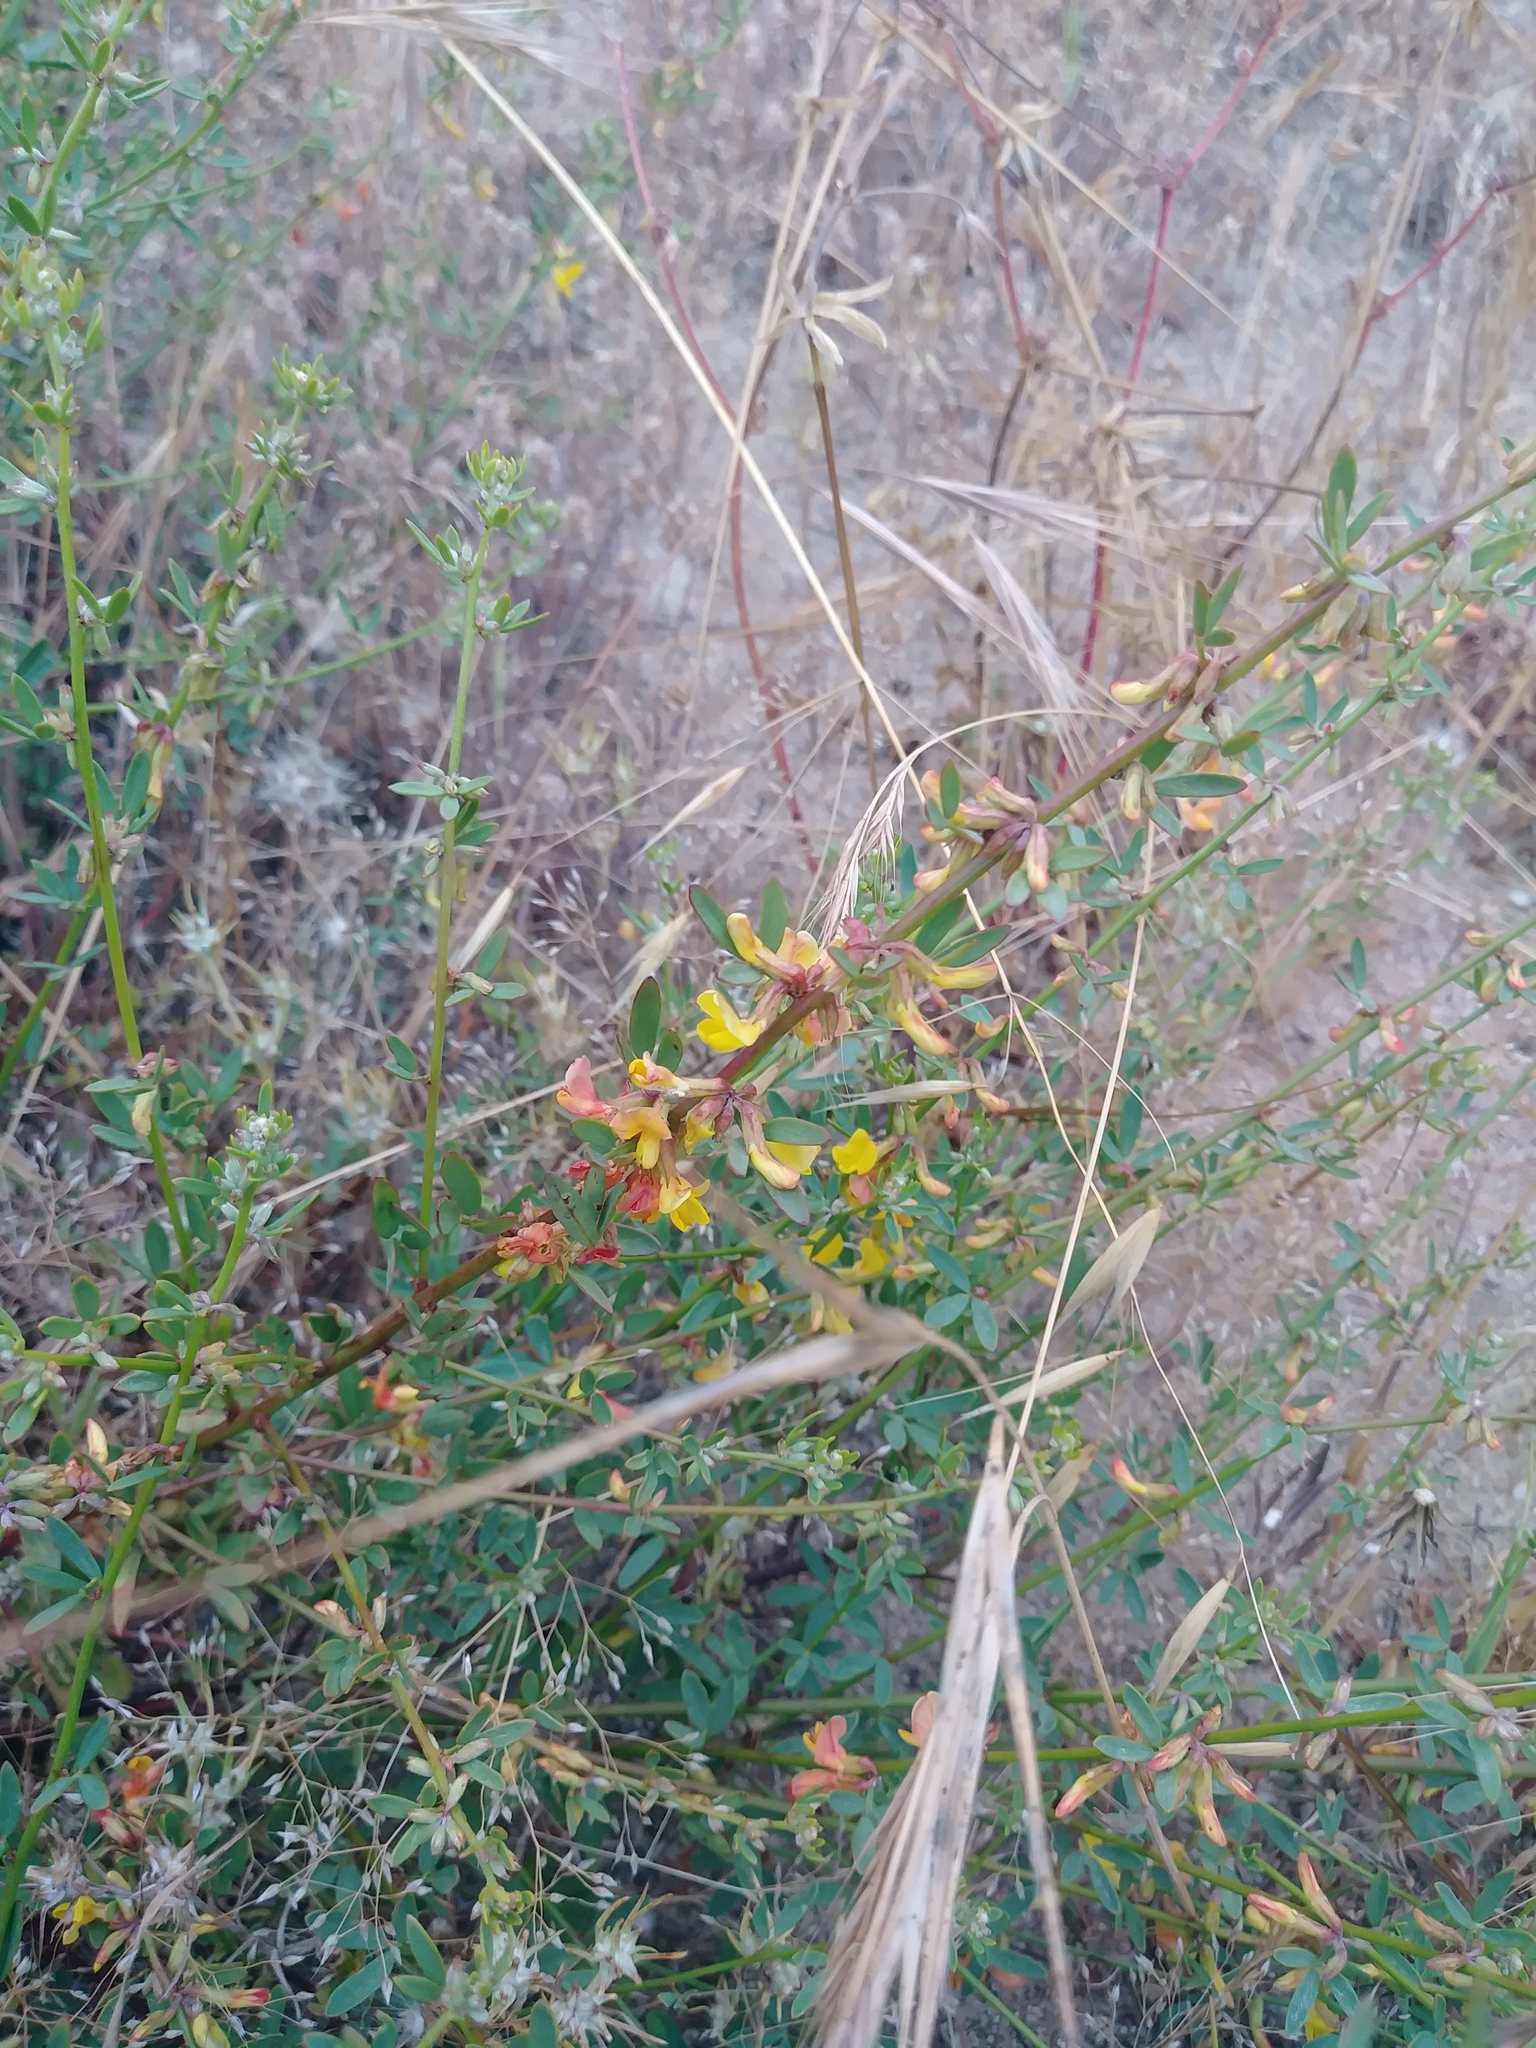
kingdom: Plantae
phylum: Tracheophyta
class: Magnoliopsida
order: Fabales
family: Fabaceae
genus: Acmispon
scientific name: Acmispon glaber
